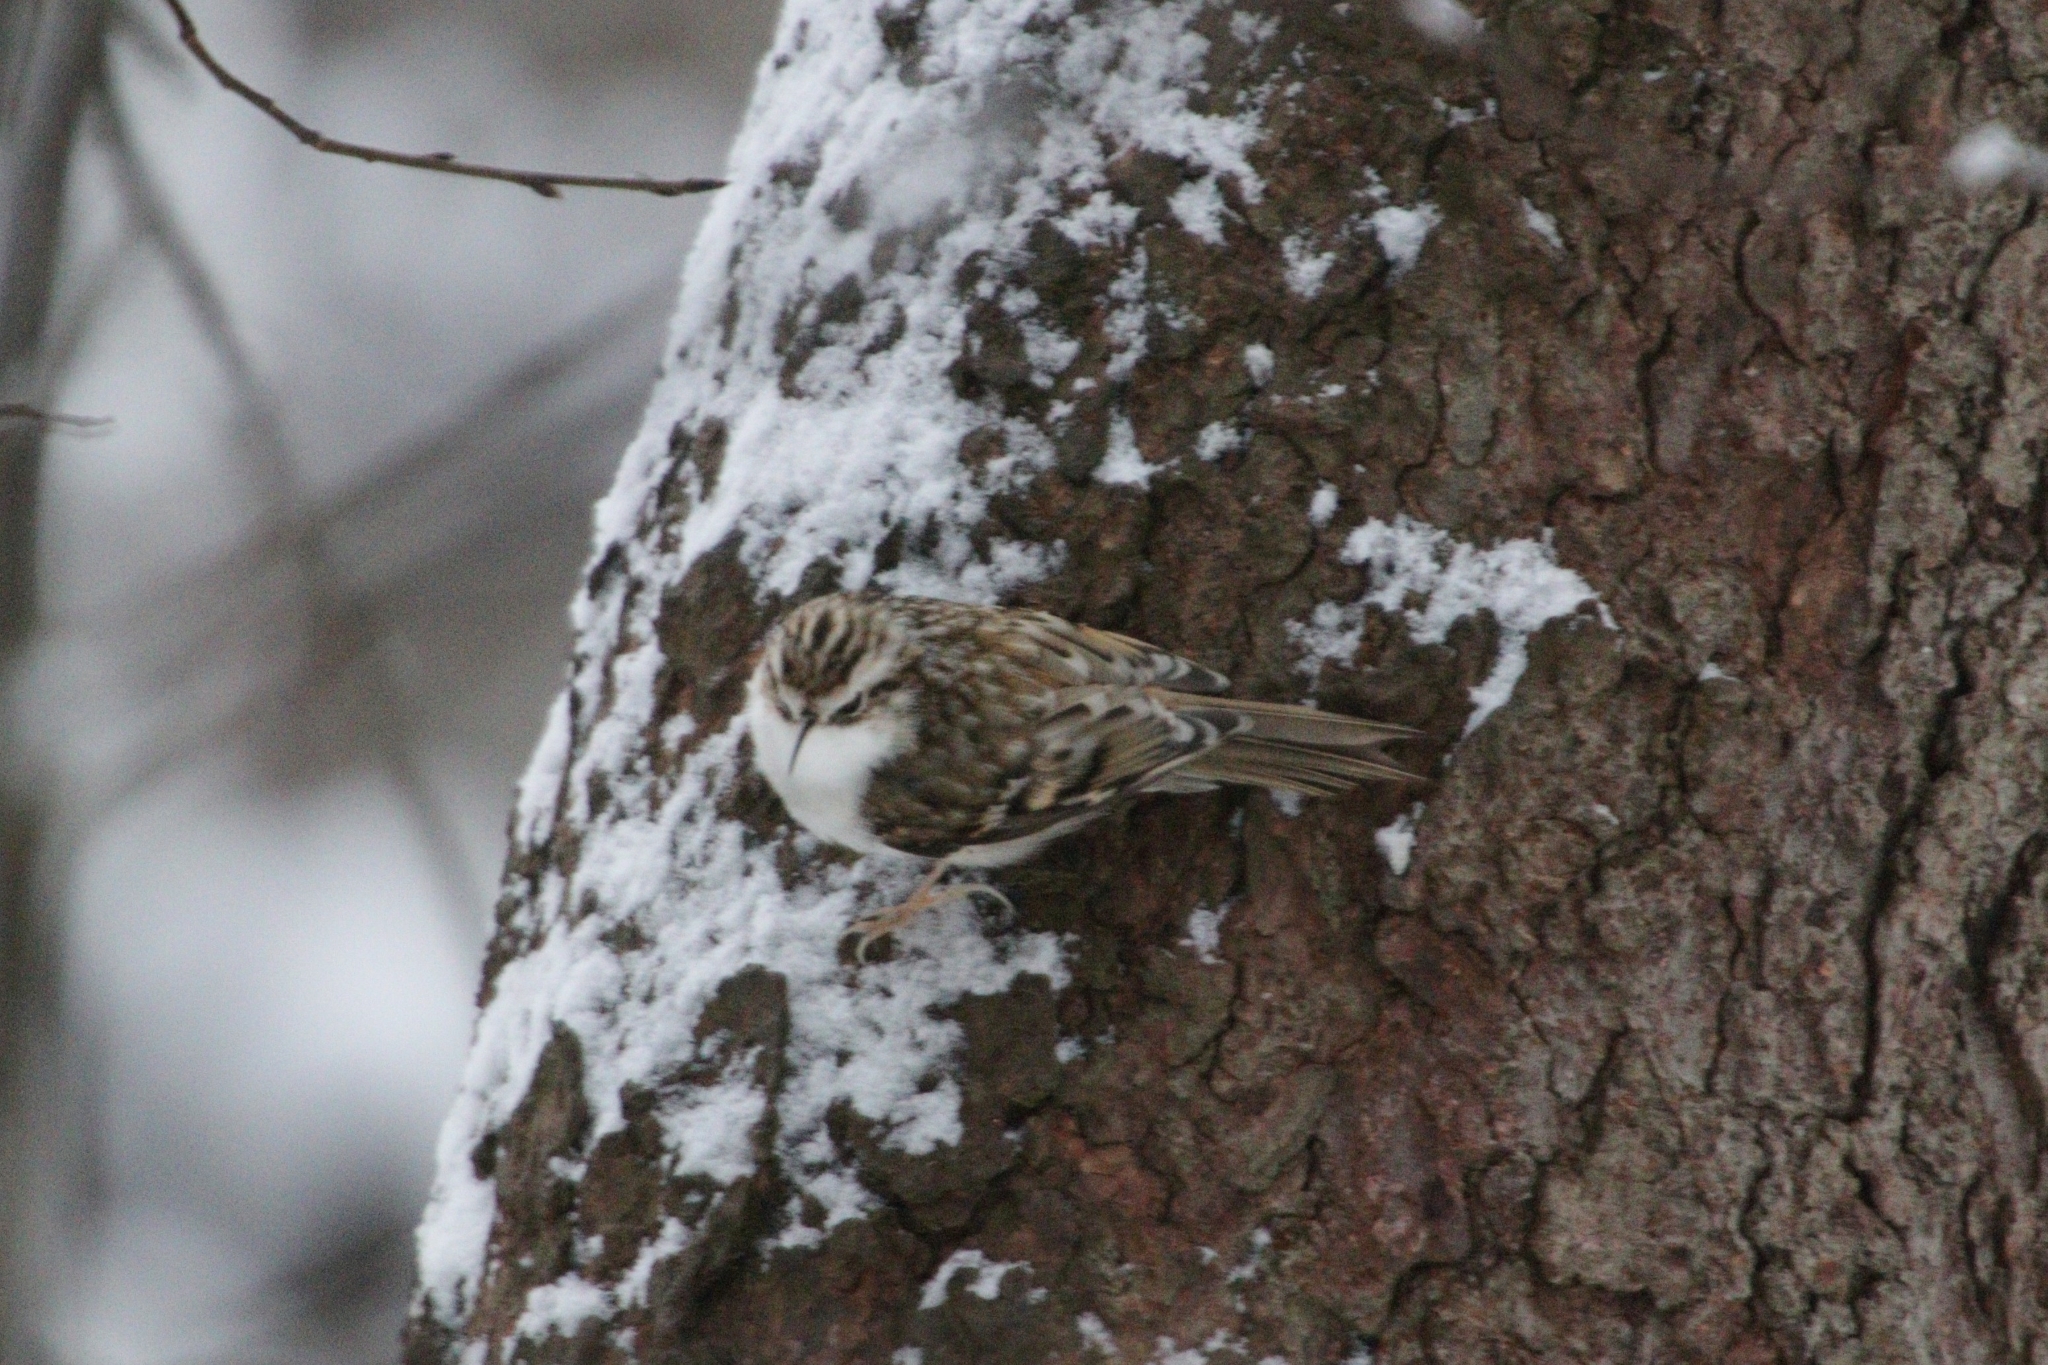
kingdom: Animalia
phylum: Chordata
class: Aves
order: Passeriformes
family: Certhiidae
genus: Certhia
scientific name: Certhia familiaris
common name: Eurasian treecreeper
